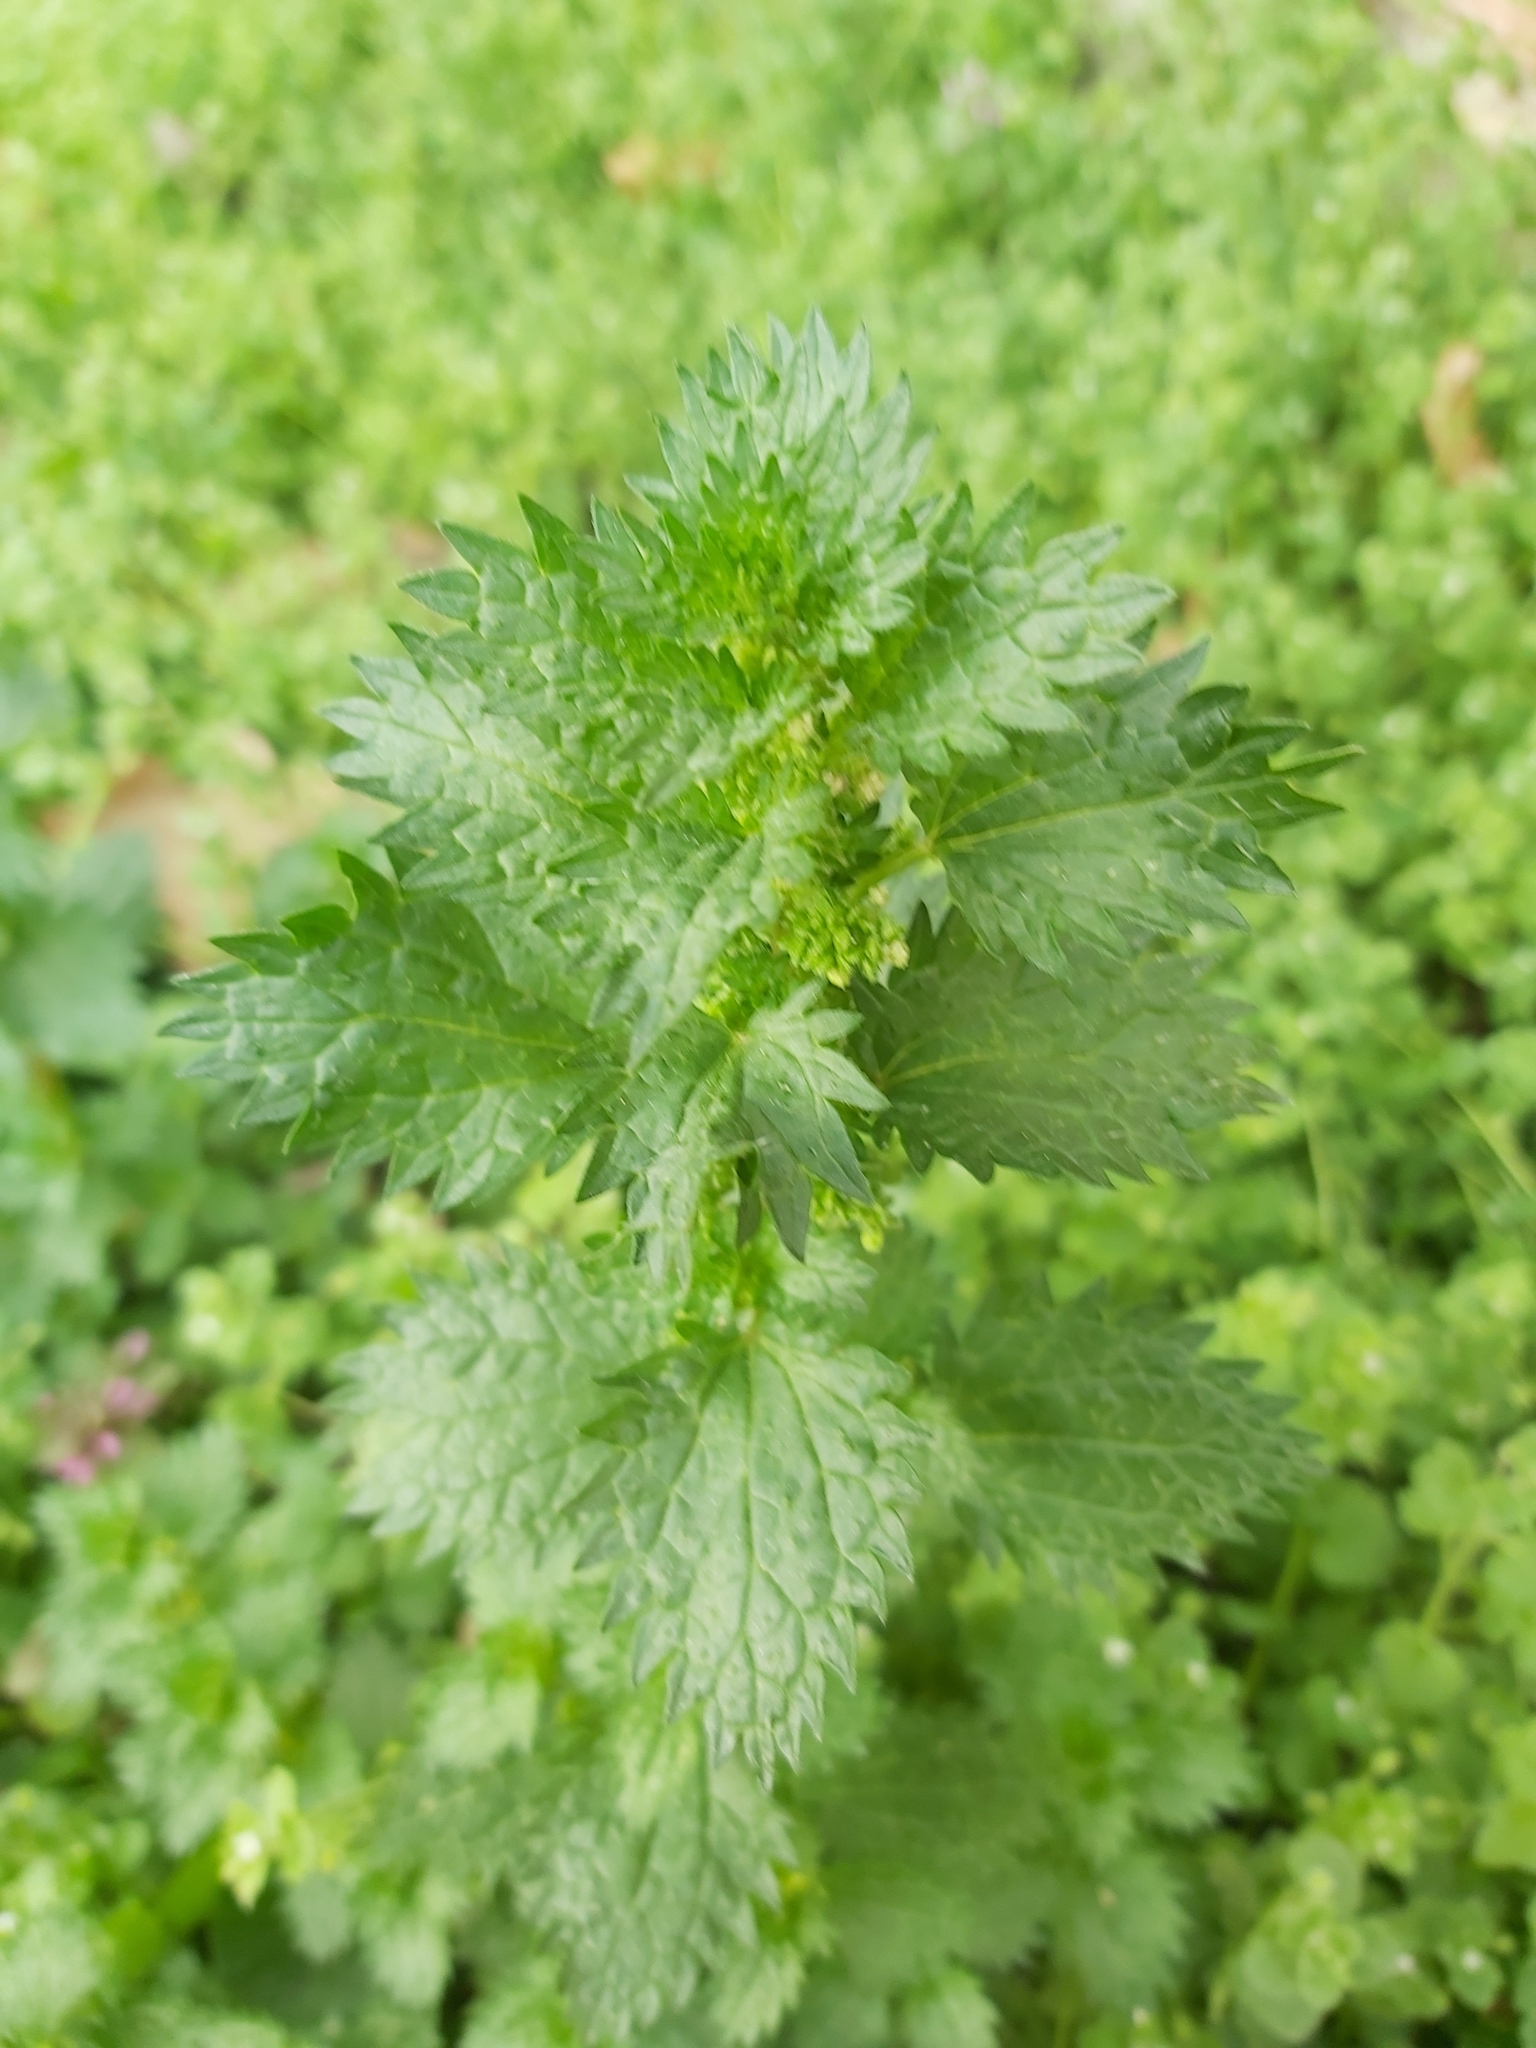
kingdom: Plantae
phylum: Tracheophyta
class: Magnoliopsida
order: Rosales
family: Urticaceae
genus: Urtica
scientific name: Urtica urens
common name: Dwarf nettle
